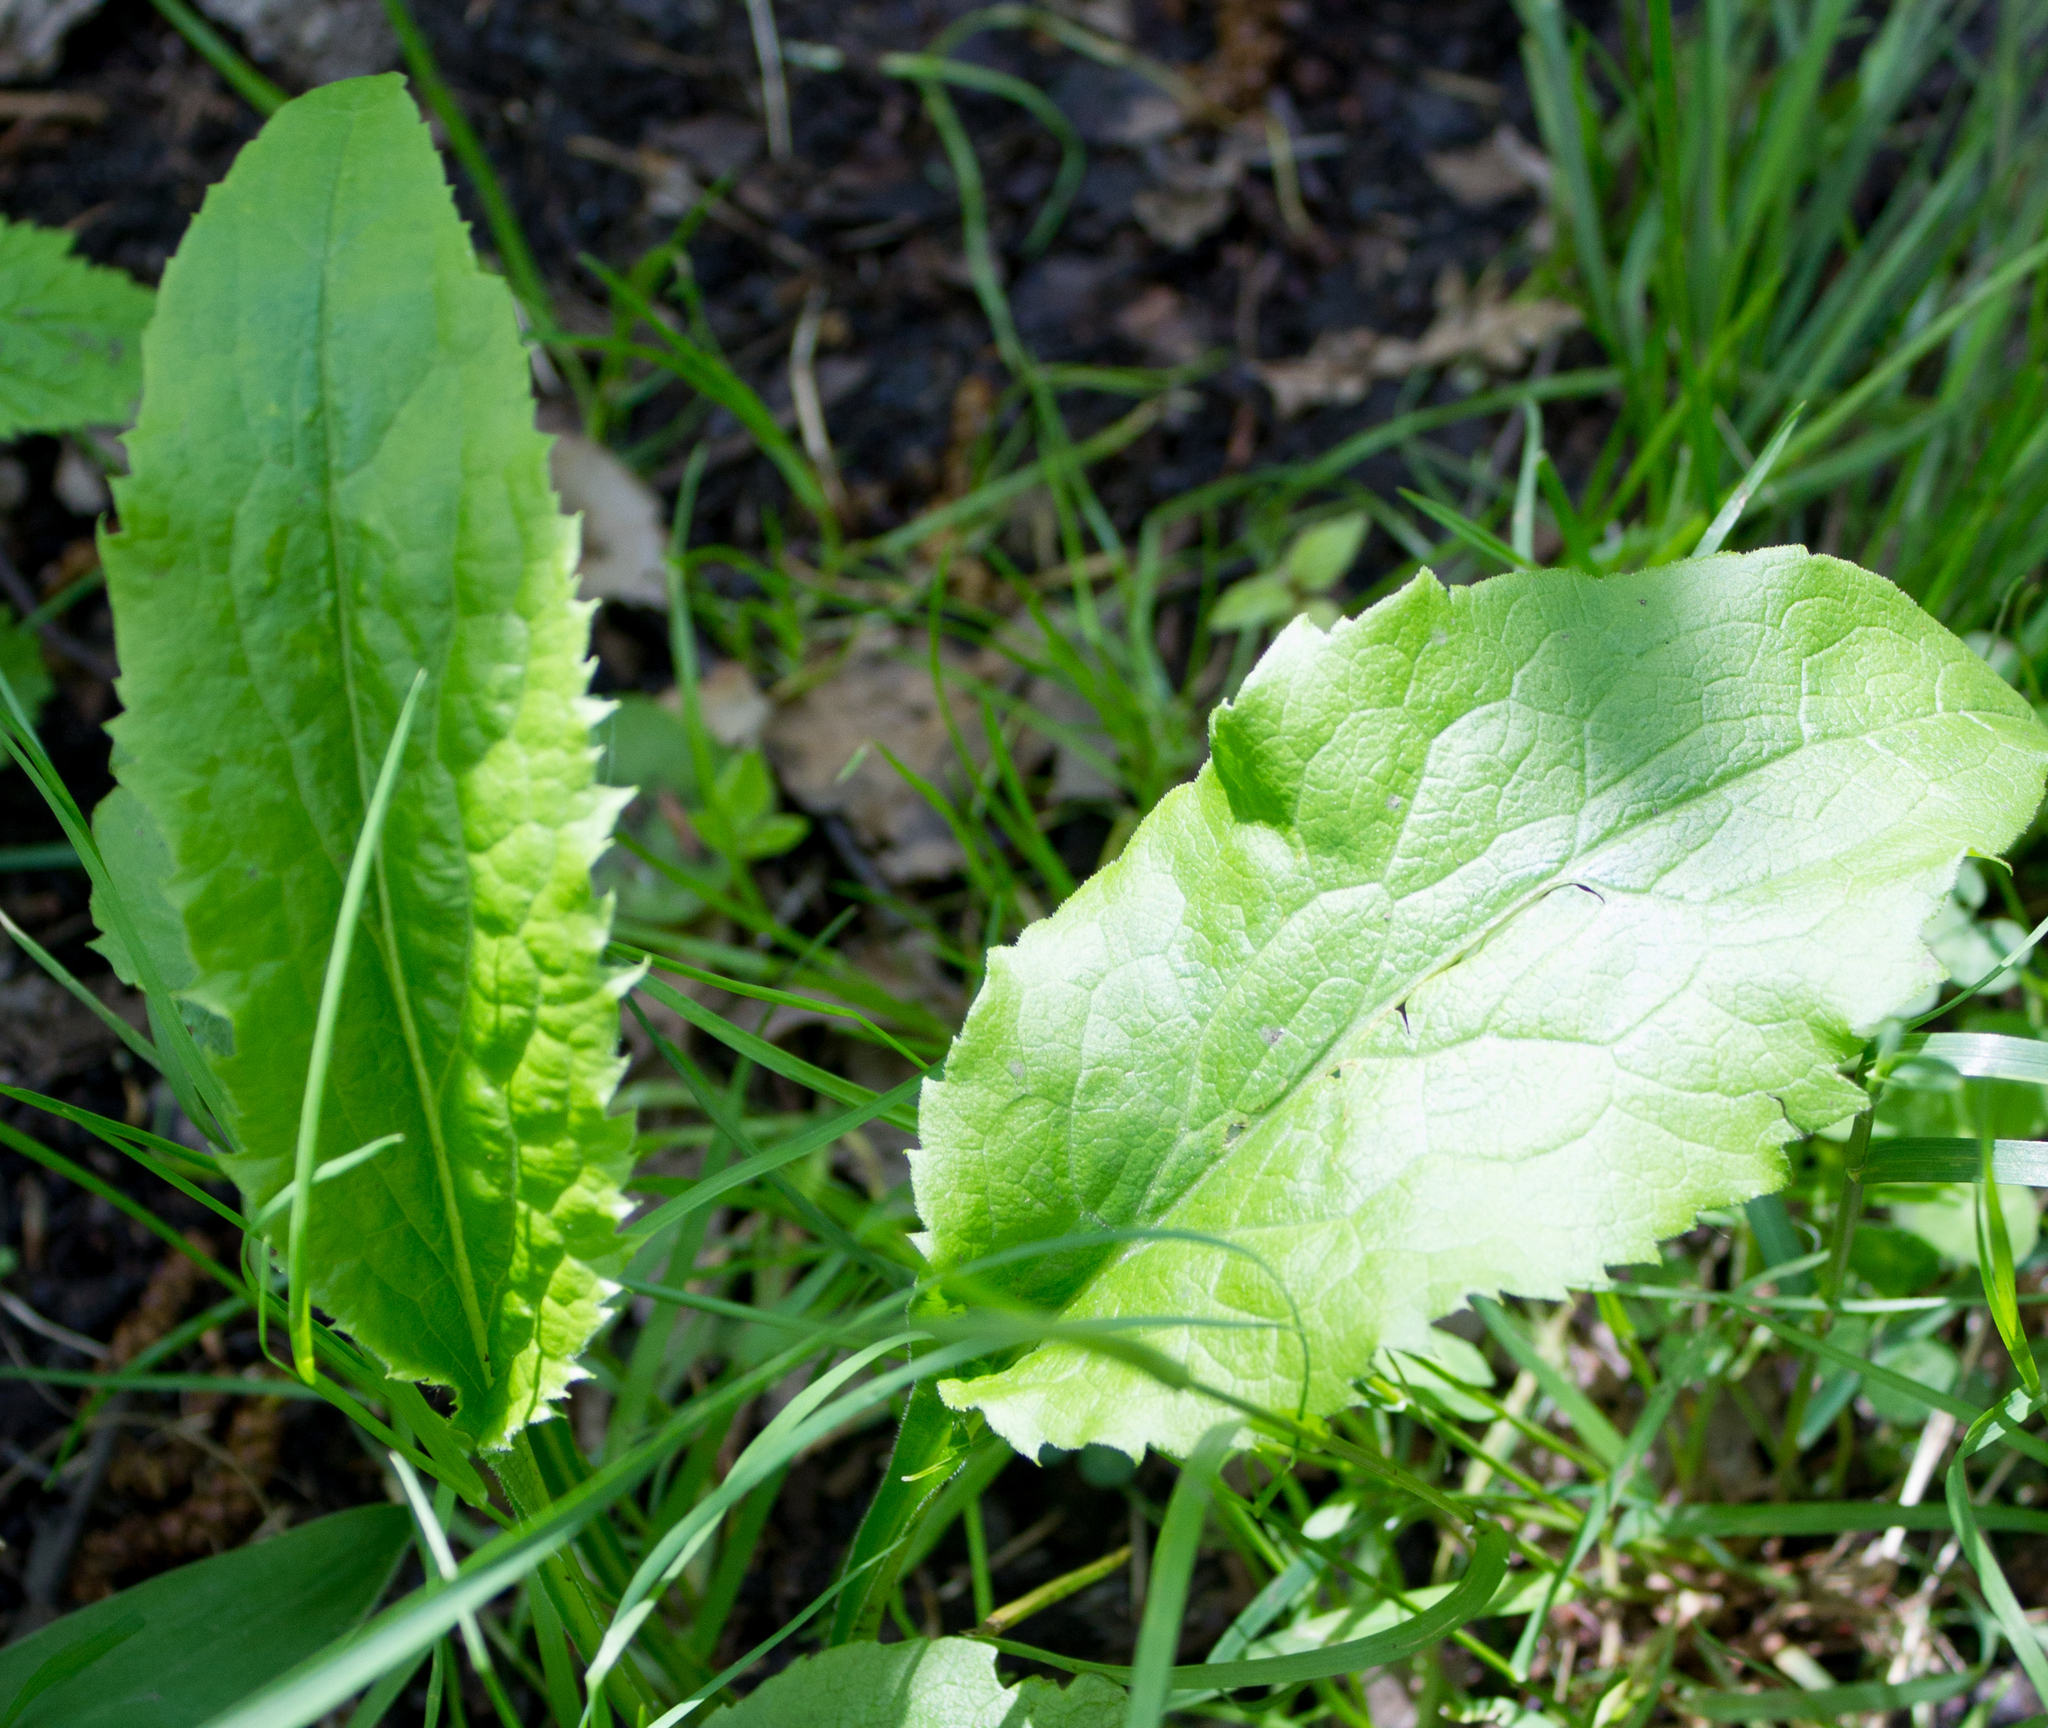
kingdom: Plantae
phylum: Tracheophyta
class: Magnoliopsida
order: Asterales
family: Asteraceae
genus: Solidago
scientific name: Solidago virgaurea
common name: Goldenrod
